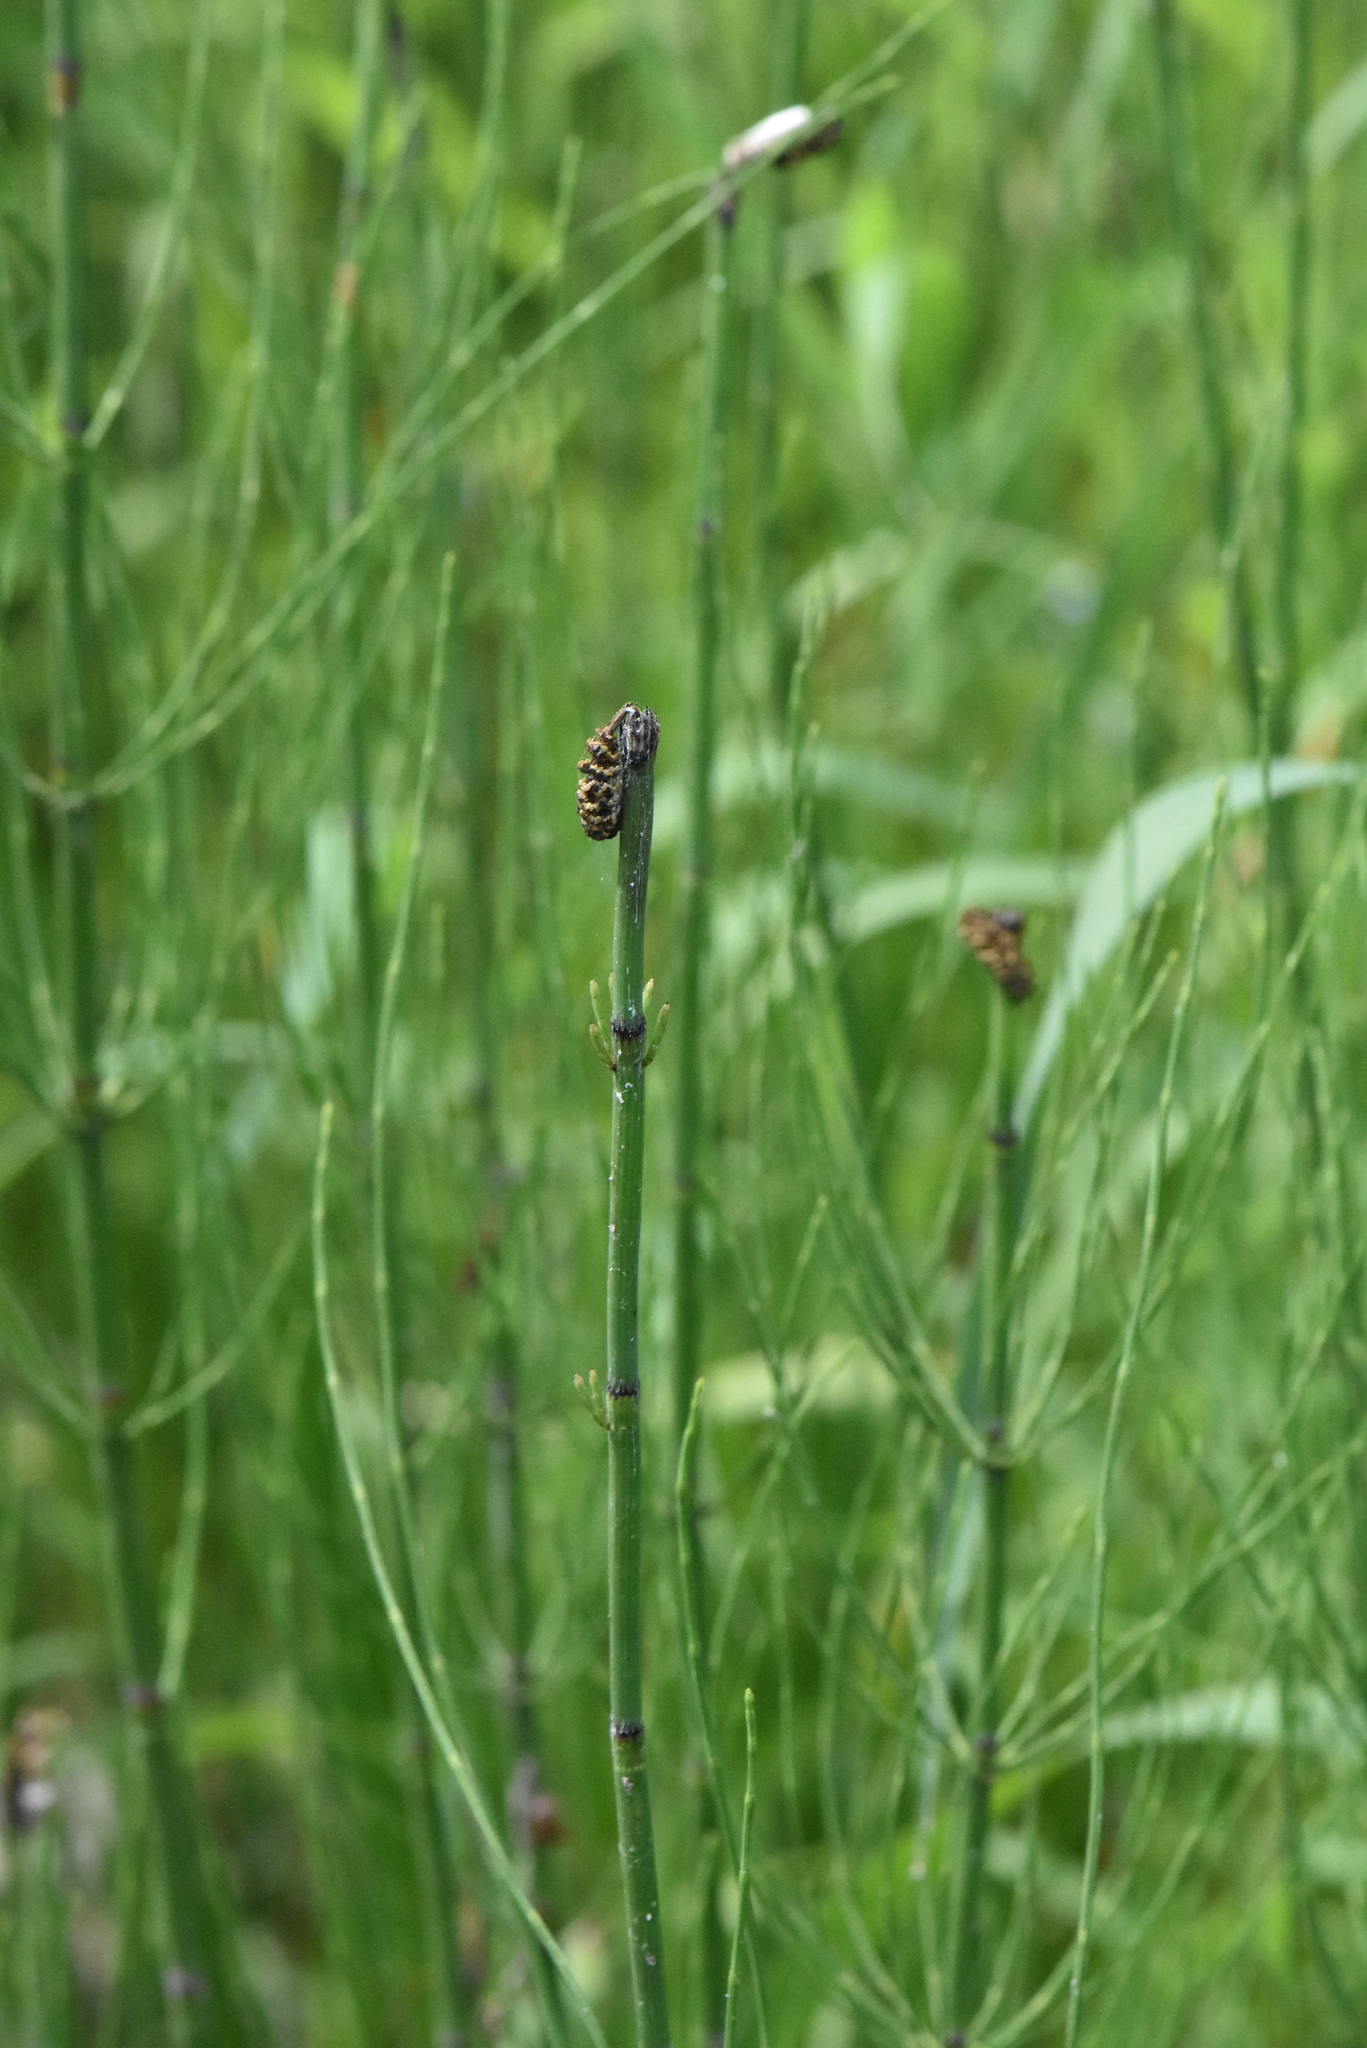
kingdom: Plantae
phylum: Tracheophyta
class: Polypodiopsida
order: Equisetales
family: Equisetaceae
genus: Equisetum
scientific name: Equisetum fluviatile
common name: Water horsetail
